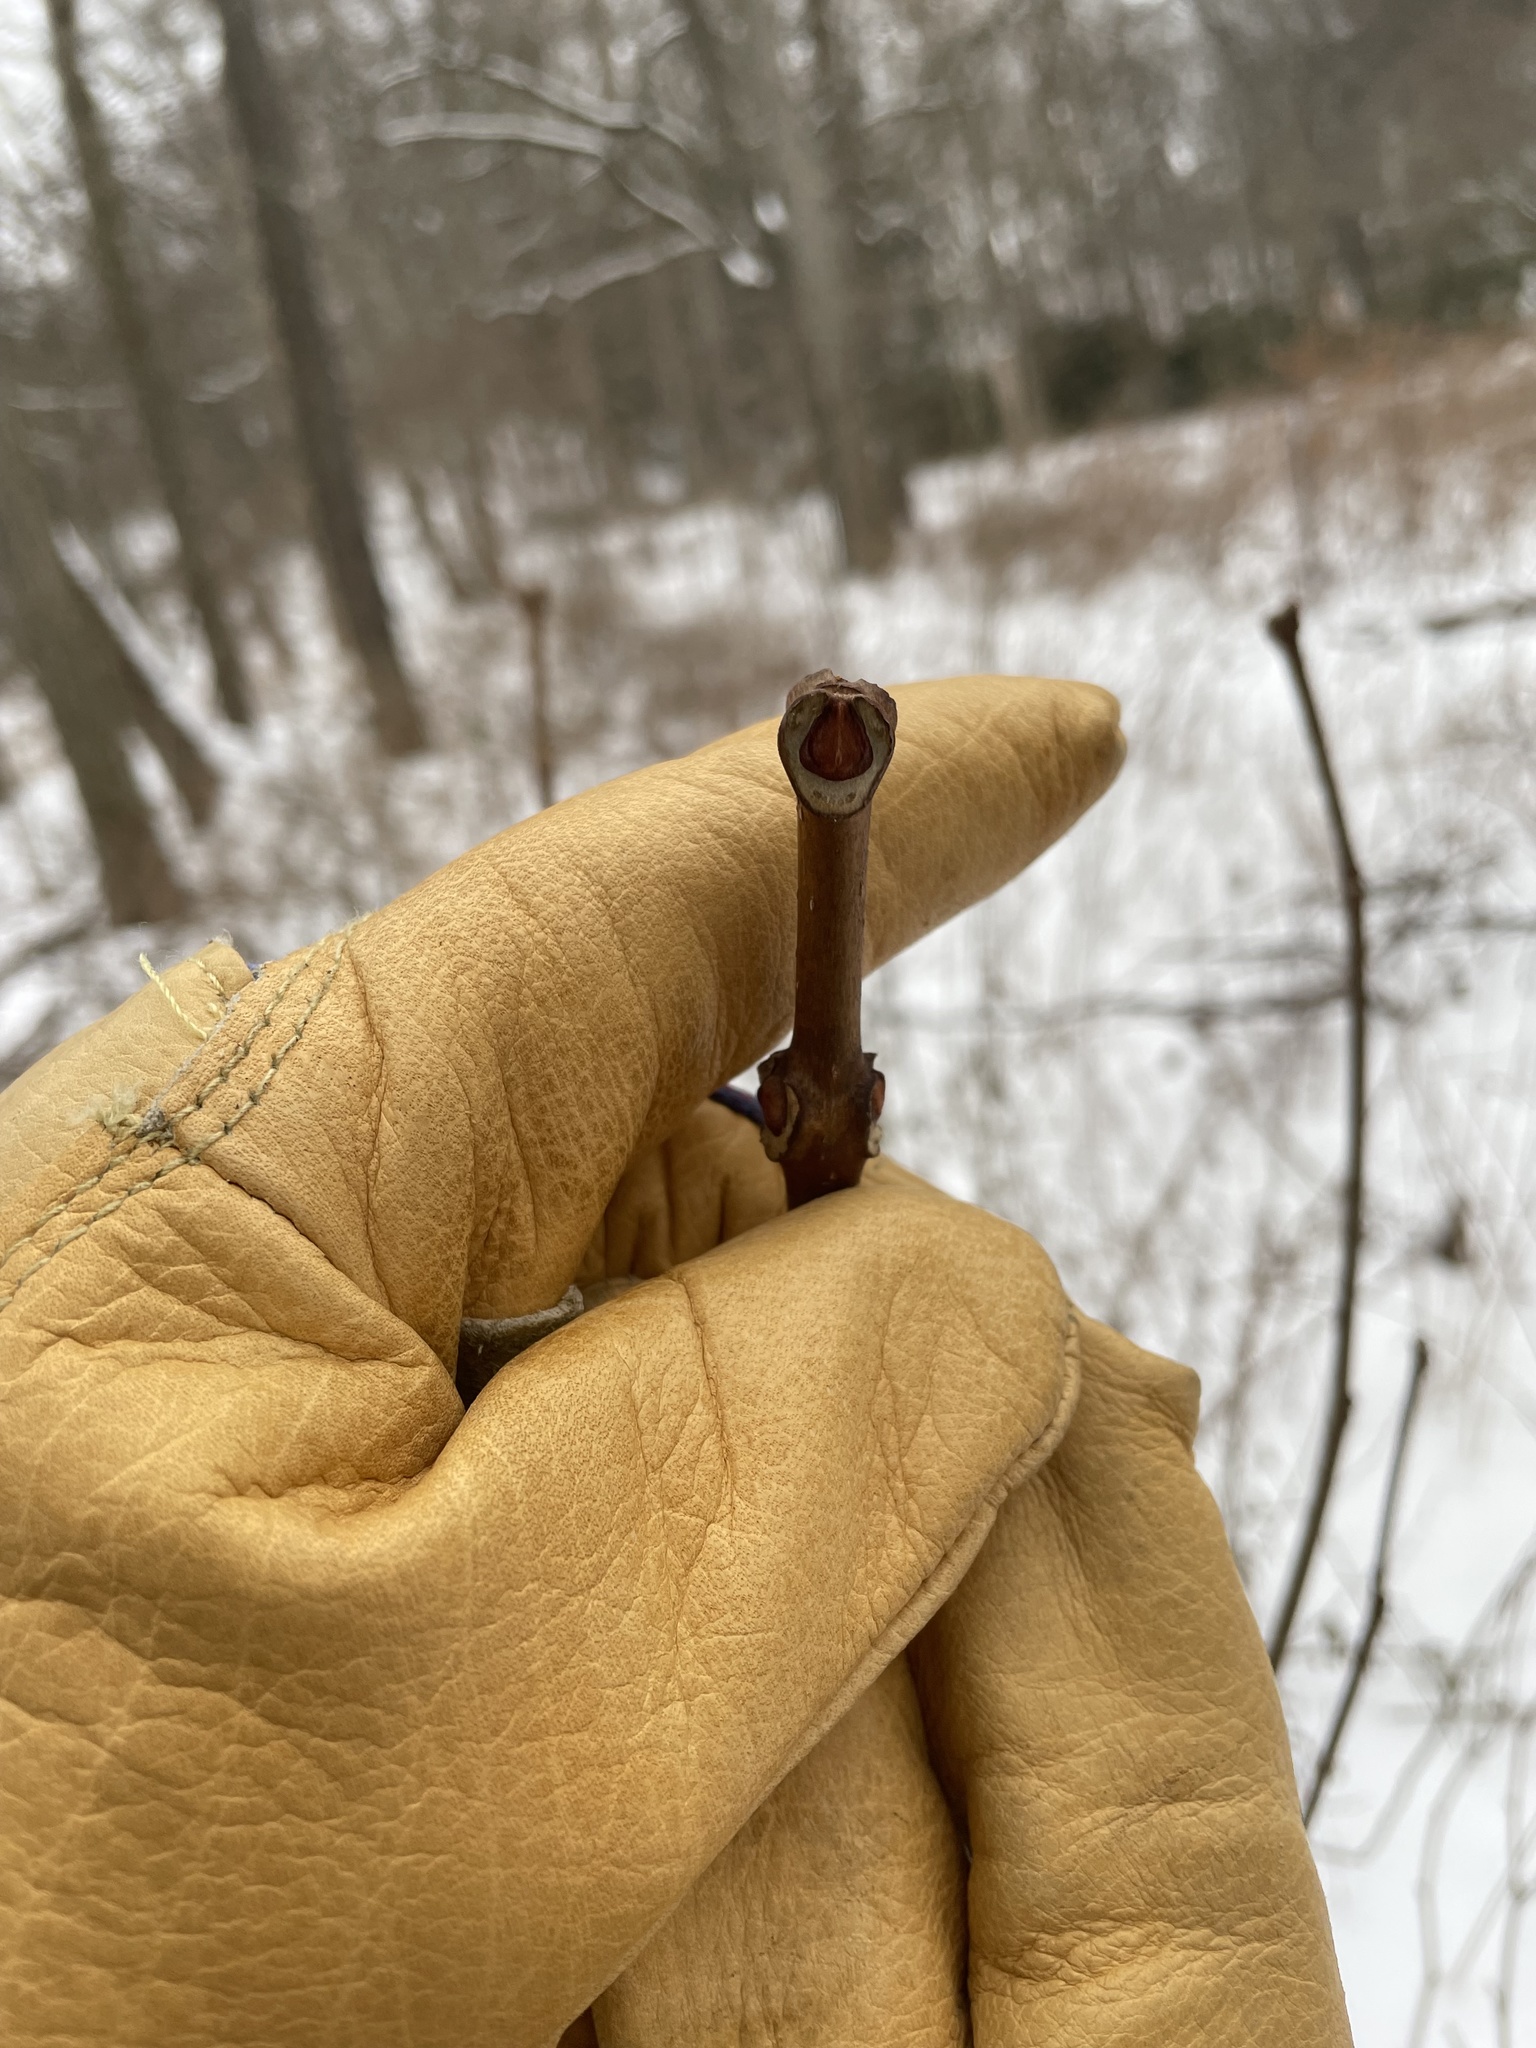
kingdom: Plantae
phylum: Tracheophyta
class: Magnoliopsida
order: Sapindales
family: Rutaceae
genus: Phellodendron
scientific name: Phellodendron amurense
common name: Amur corktree
